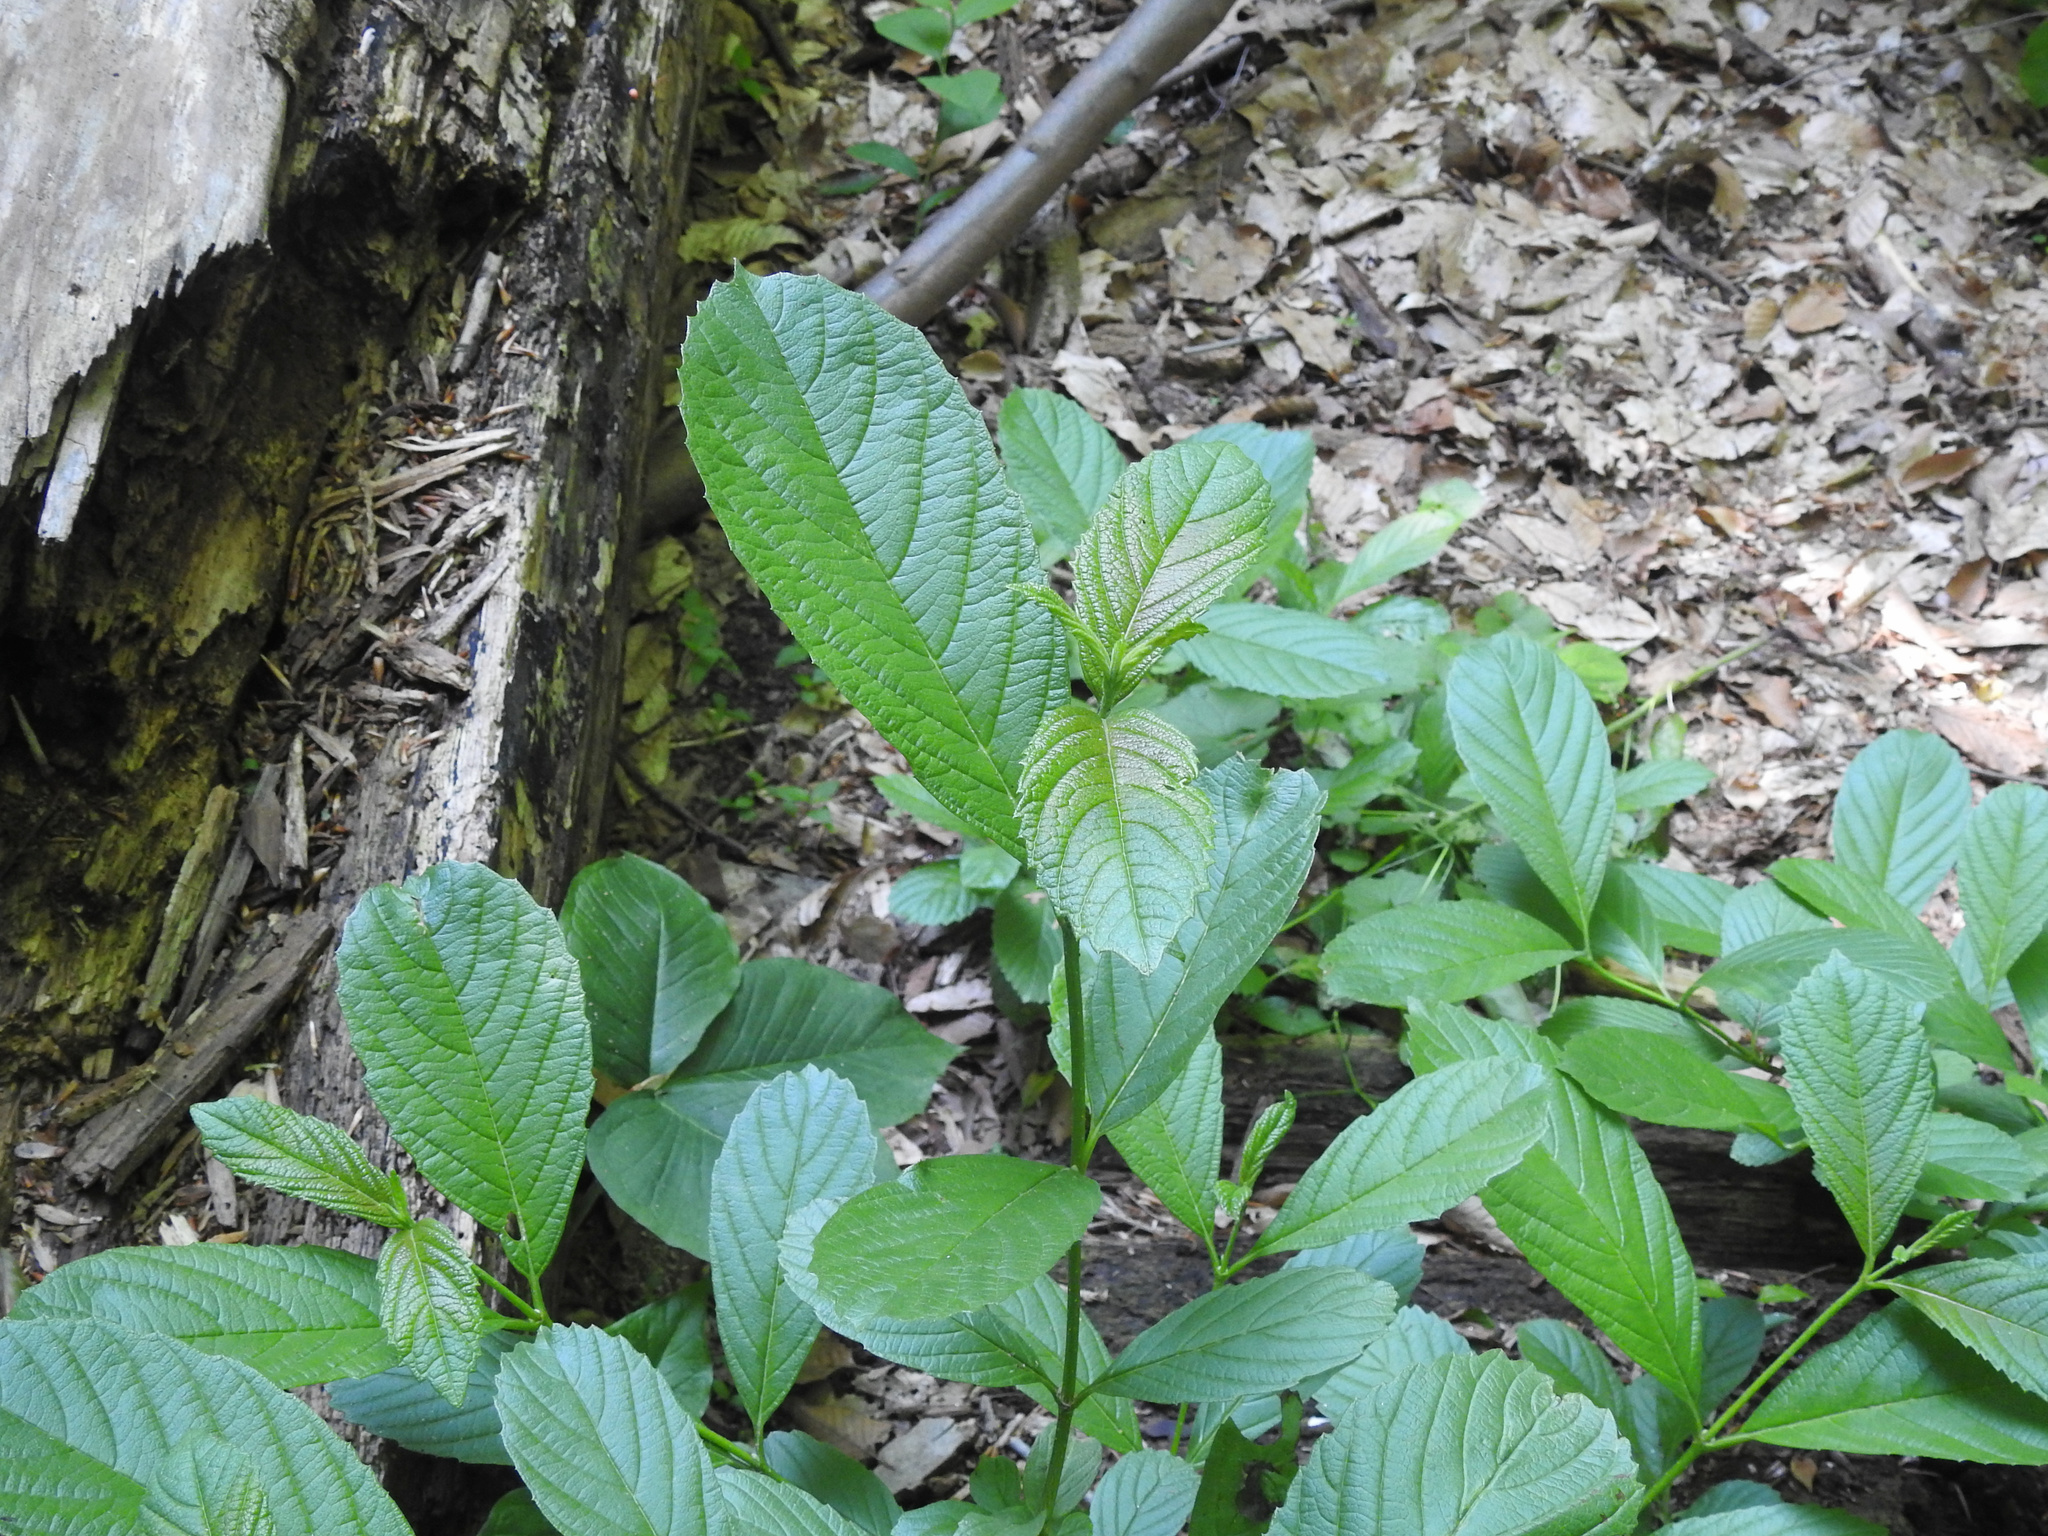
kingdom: Plantae
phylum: Tracheophyta
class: Magnoliopsida
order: Dipsacales
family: Viburnaceae
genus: Viburnum
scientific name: Viburnum sieboldii
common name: Siebold's arrowwood
